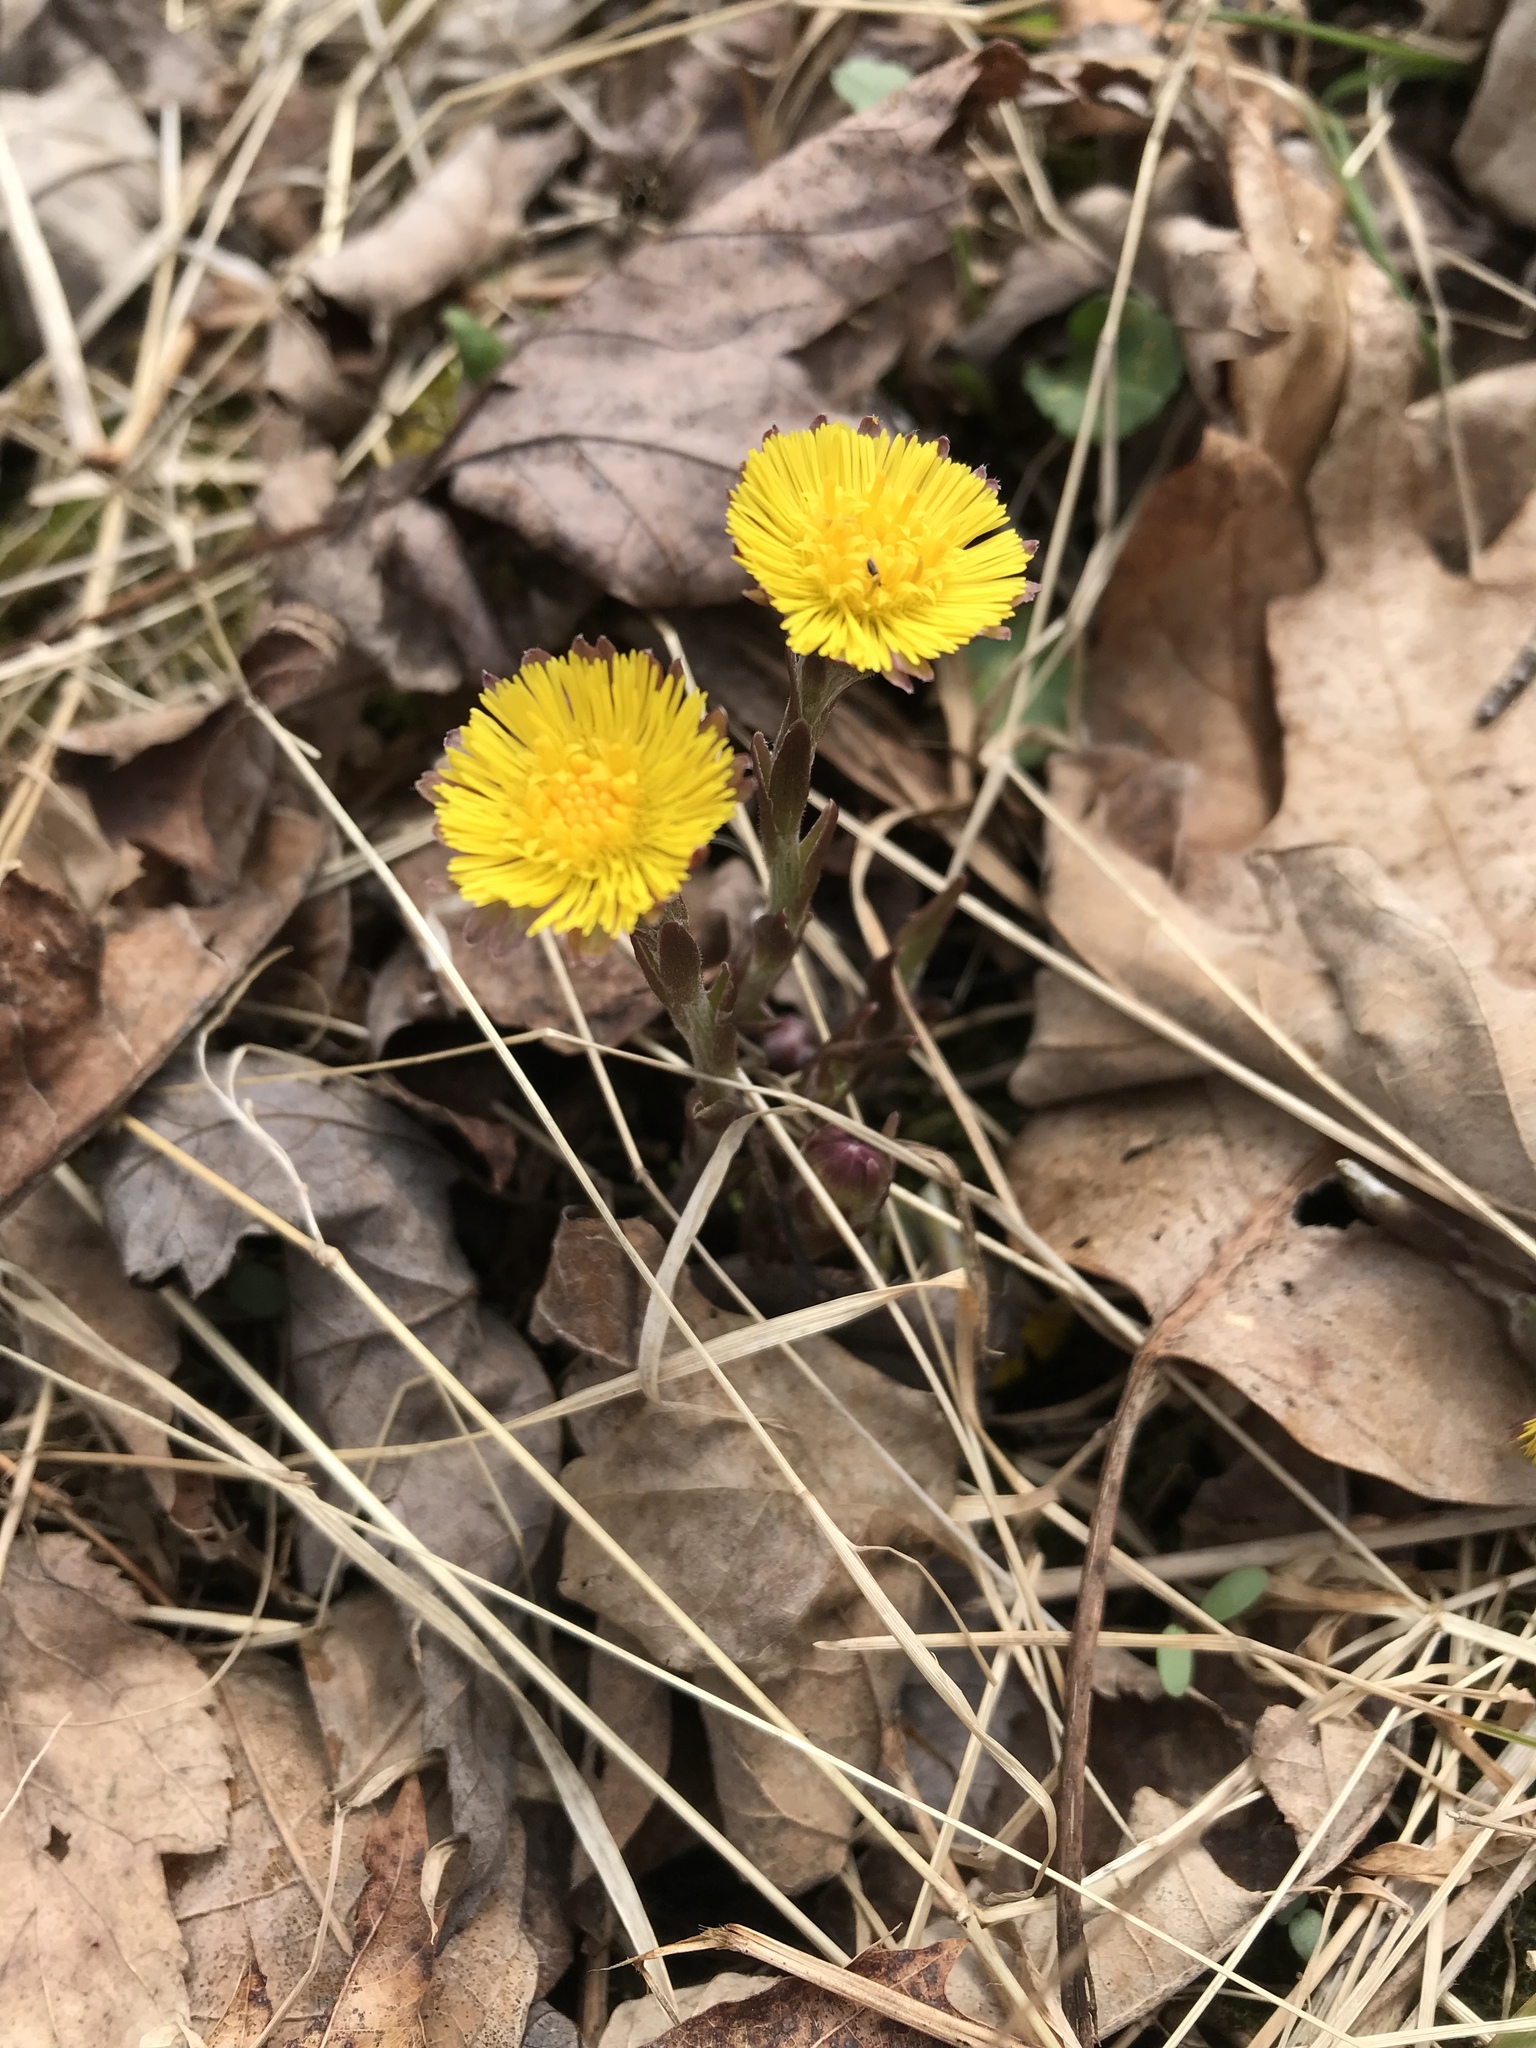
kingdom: Plantae
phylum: Tracheophyta
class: Magnoliopsida
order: Asterales
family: Asteraceae
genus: Tussilago
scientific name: Tussilago farfara
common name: Coltsfoot
